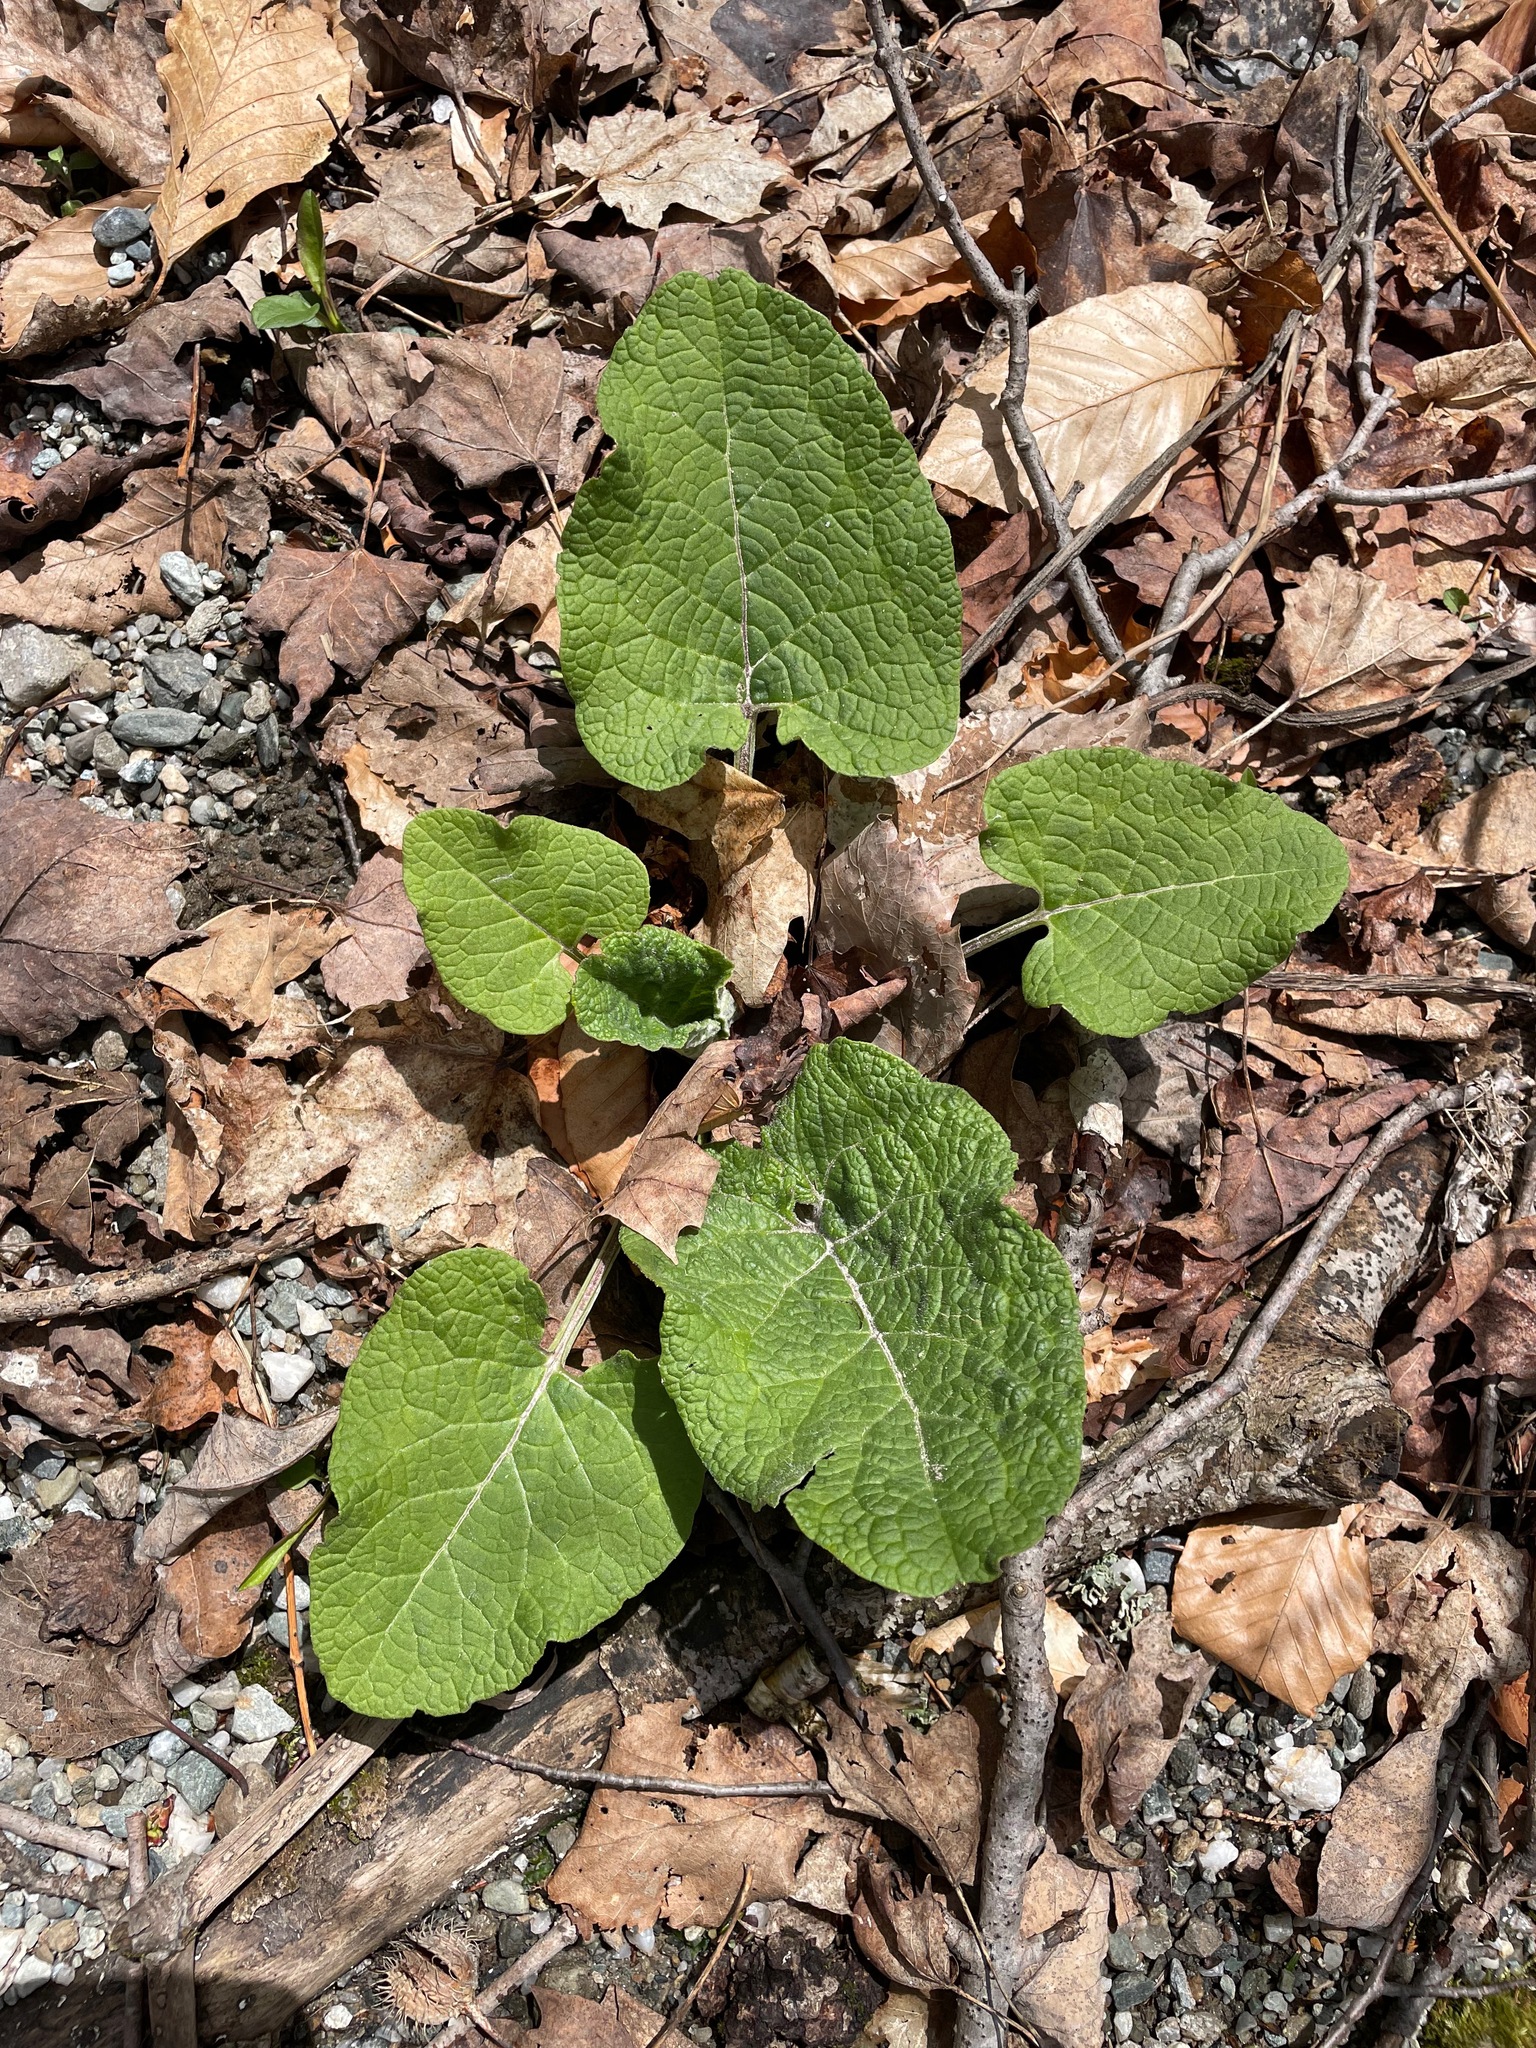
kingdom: Plantae
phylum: Tracheophyta
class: Magnoliopsida
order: Asterales
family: Asteraceae
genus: Arctium
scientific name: Arctium
